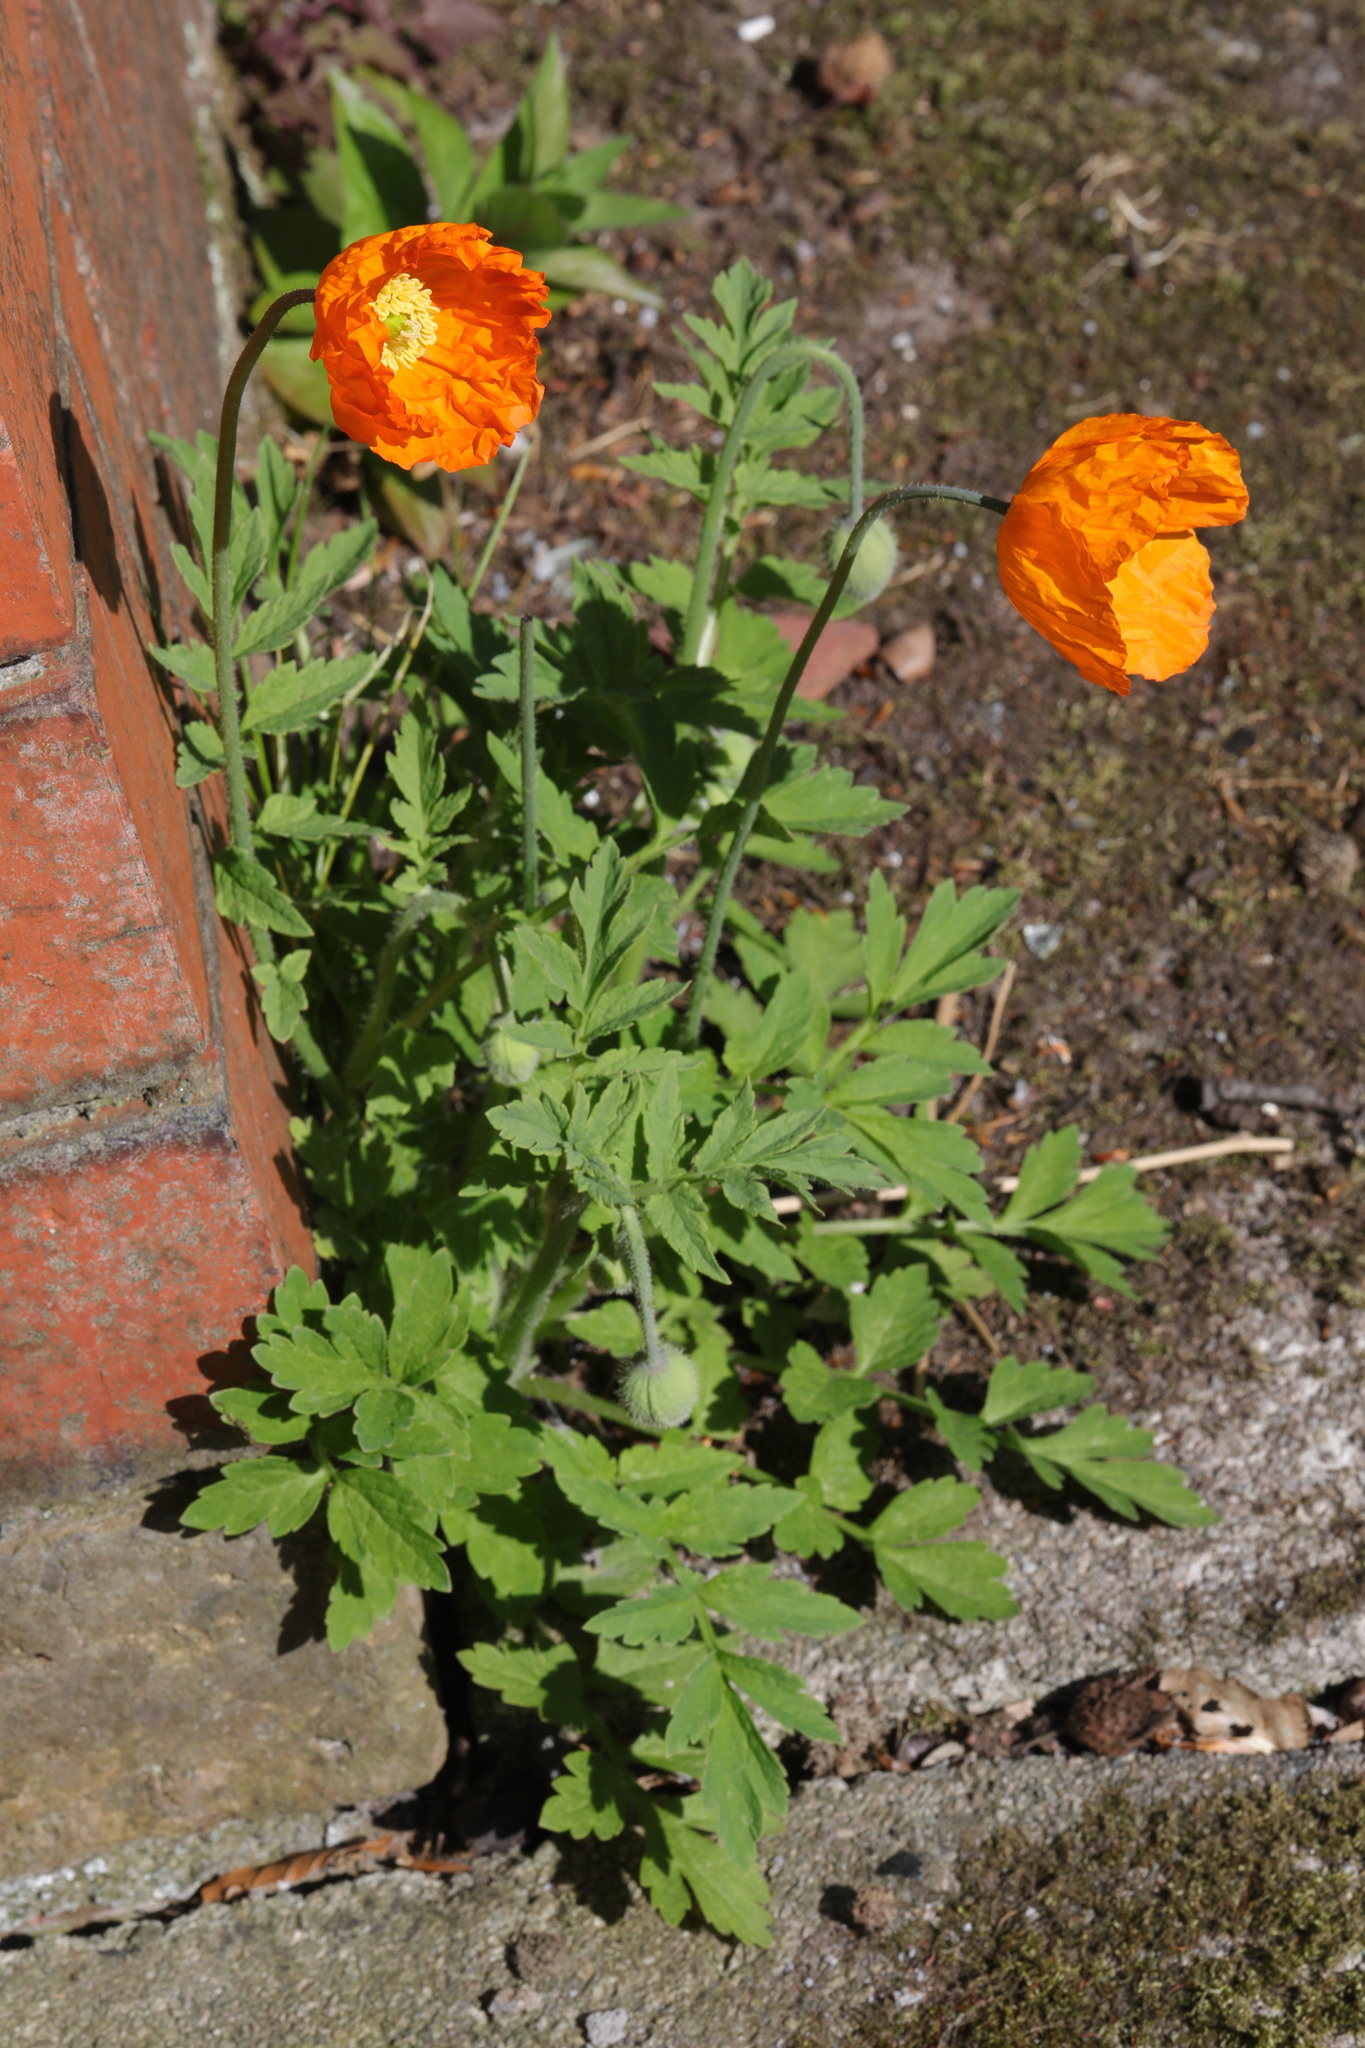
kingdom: Plantae
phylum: Tracheophyta
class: Magnoliopsida
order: Ranunculales
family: Papaveraceae
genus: Papaver
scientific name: Papaver cambricum
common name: Poppy
